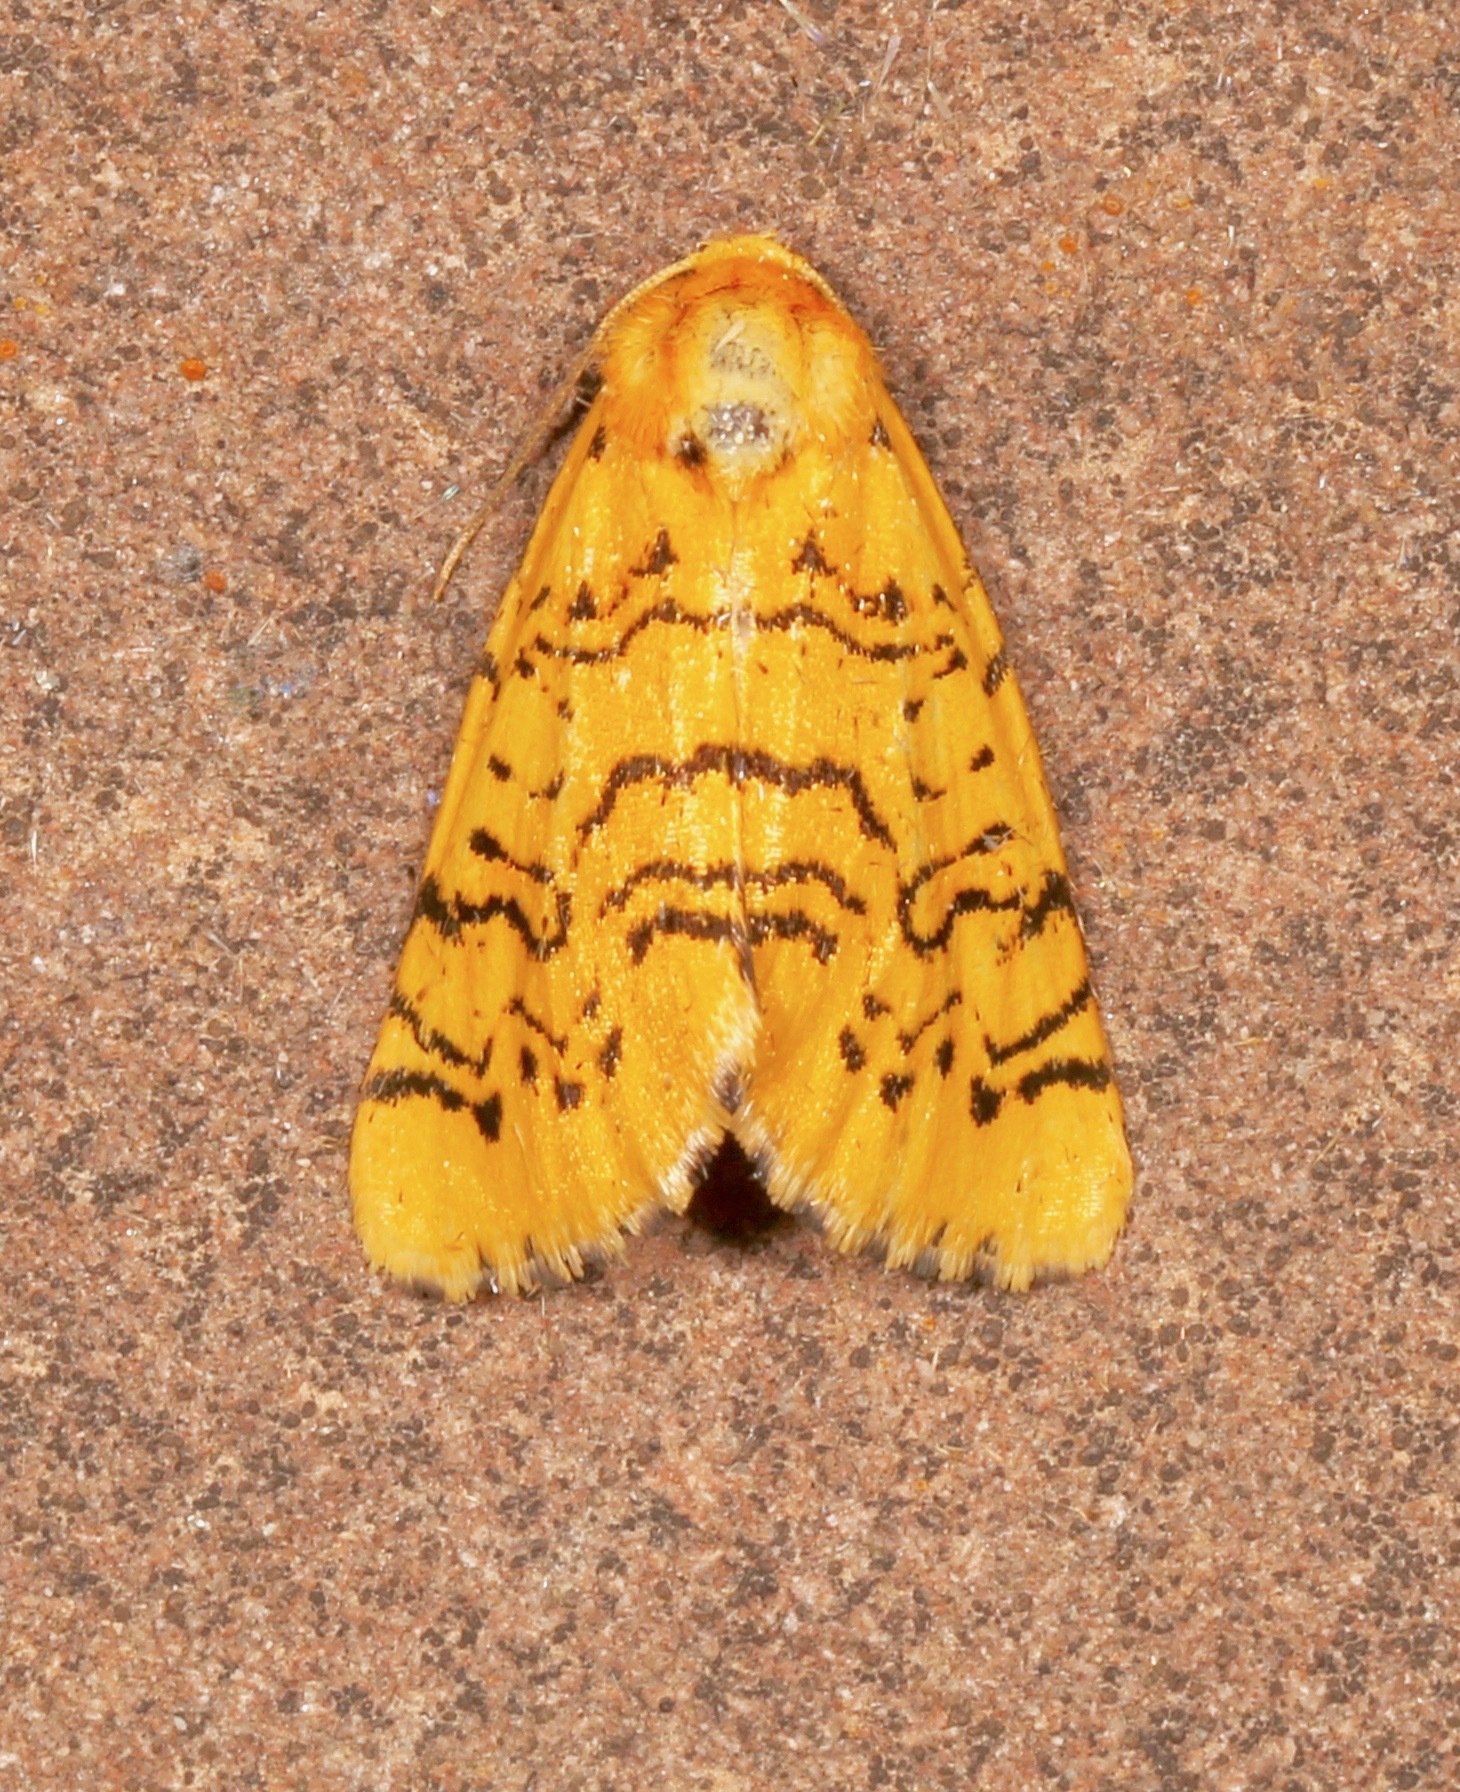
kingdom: Animalia
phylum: Arthropoda
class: Insecta
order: Lepidoptera
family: Noctuidae
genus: Chrysoecia
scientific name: Chrysoecia atrolinea
